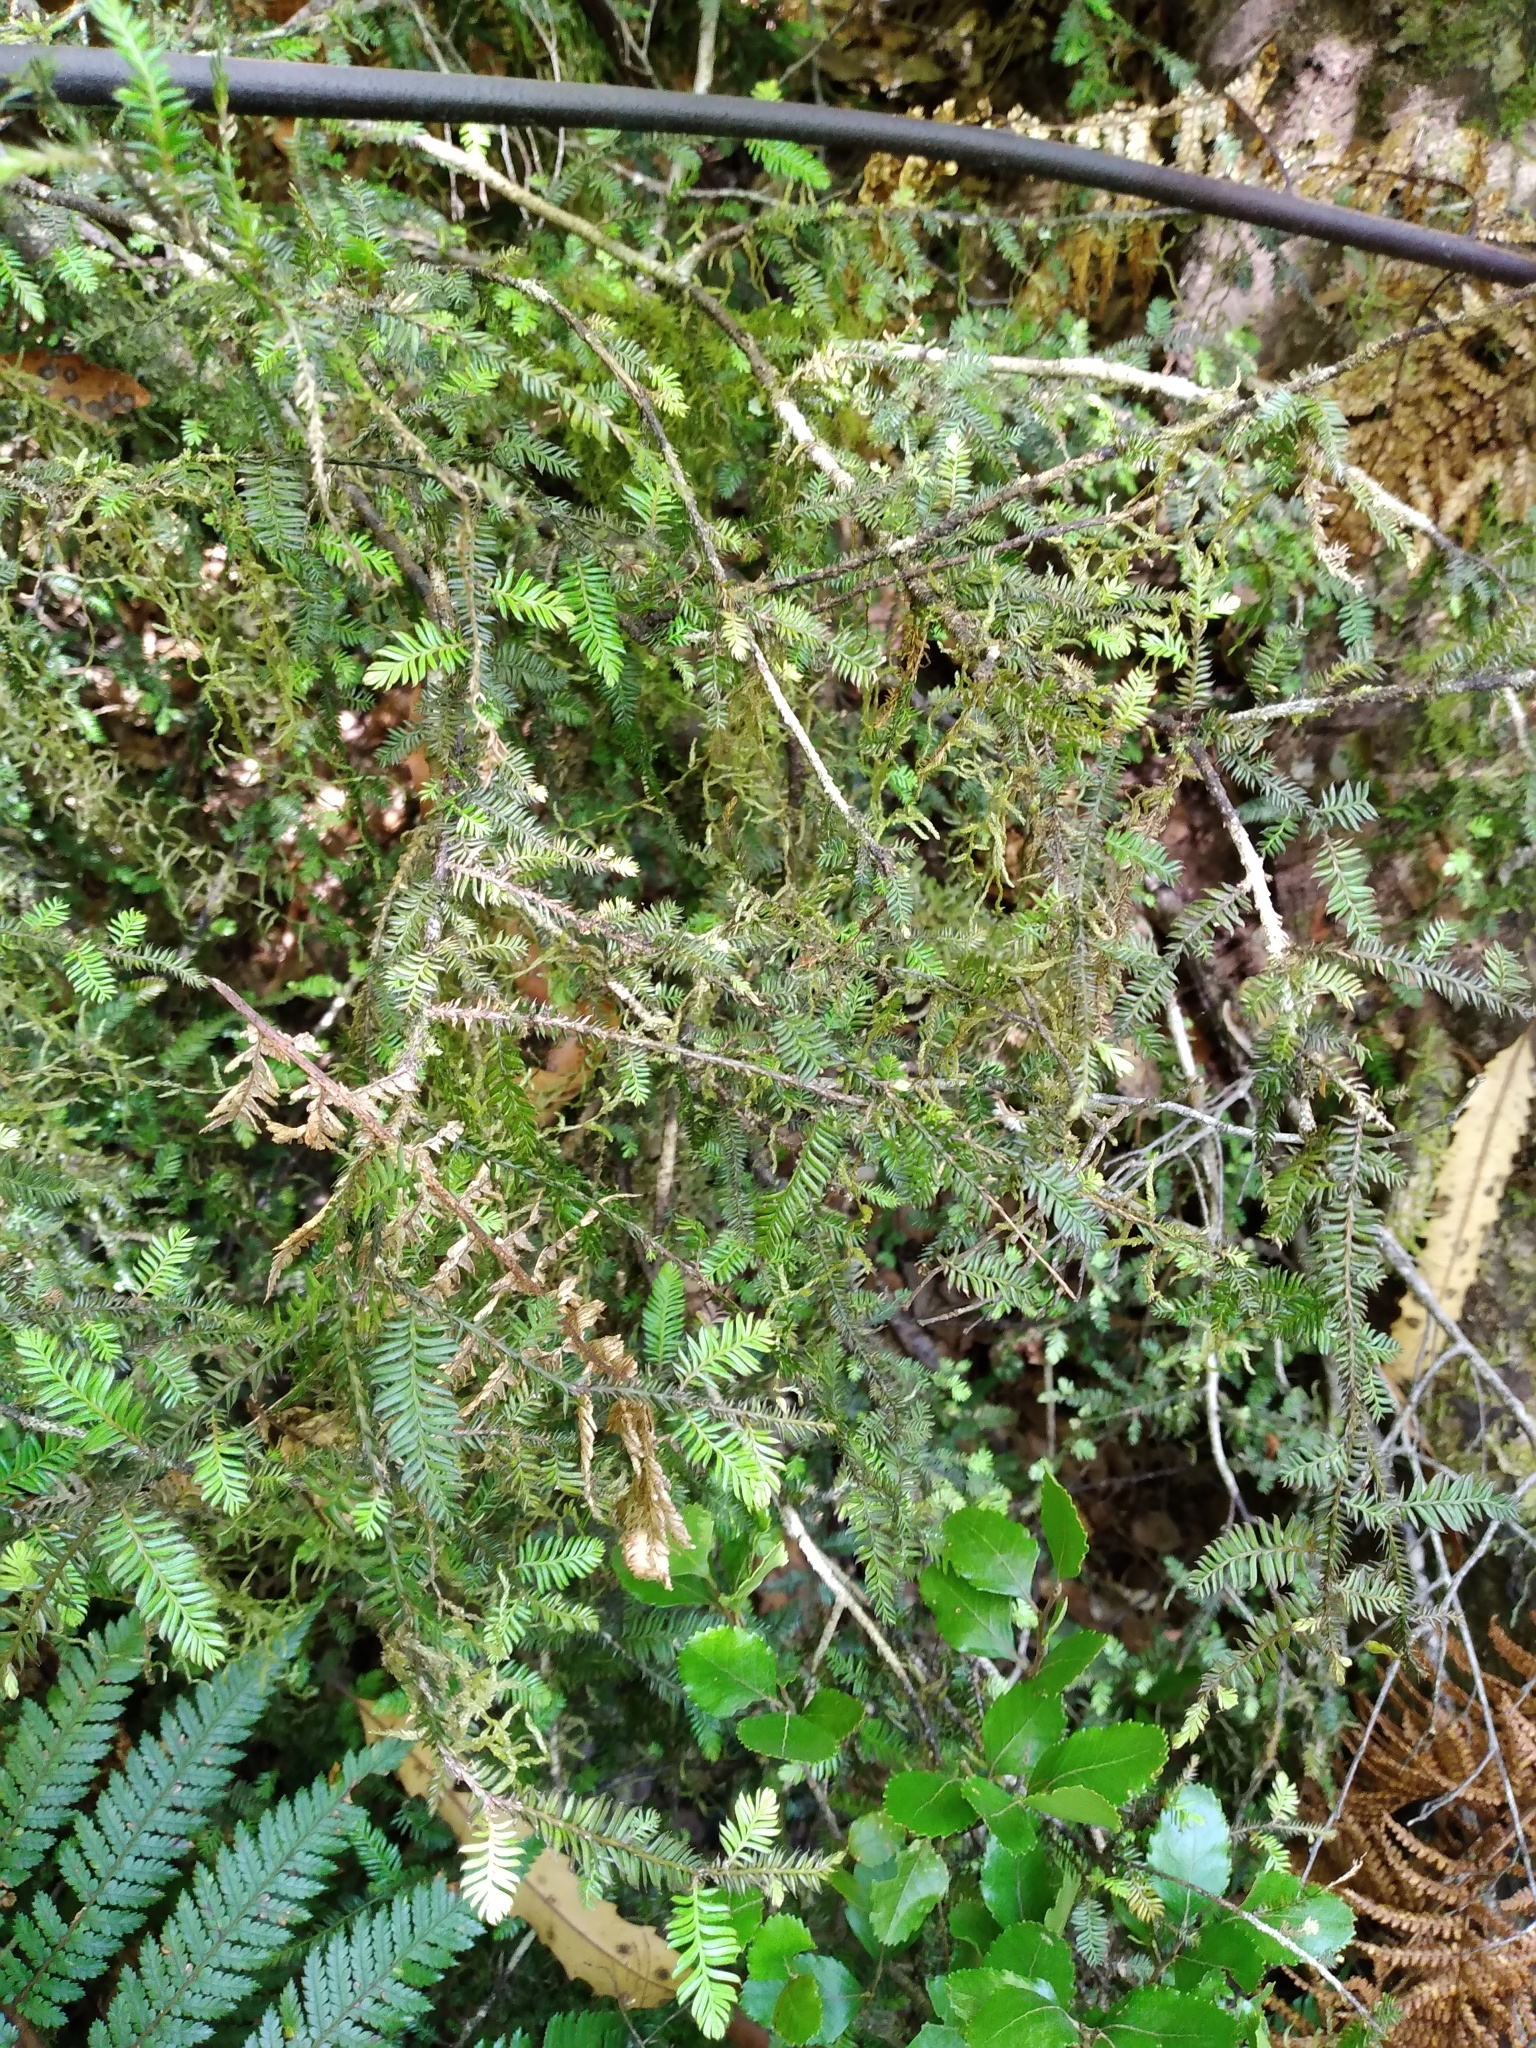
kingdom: Plantae
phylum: Tracheophyta
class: Pinopsida
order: Pinales
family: Podocarpaceae
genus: Dacrycarpus
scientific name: Dacrycarpus dacrydioides
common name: White pine
